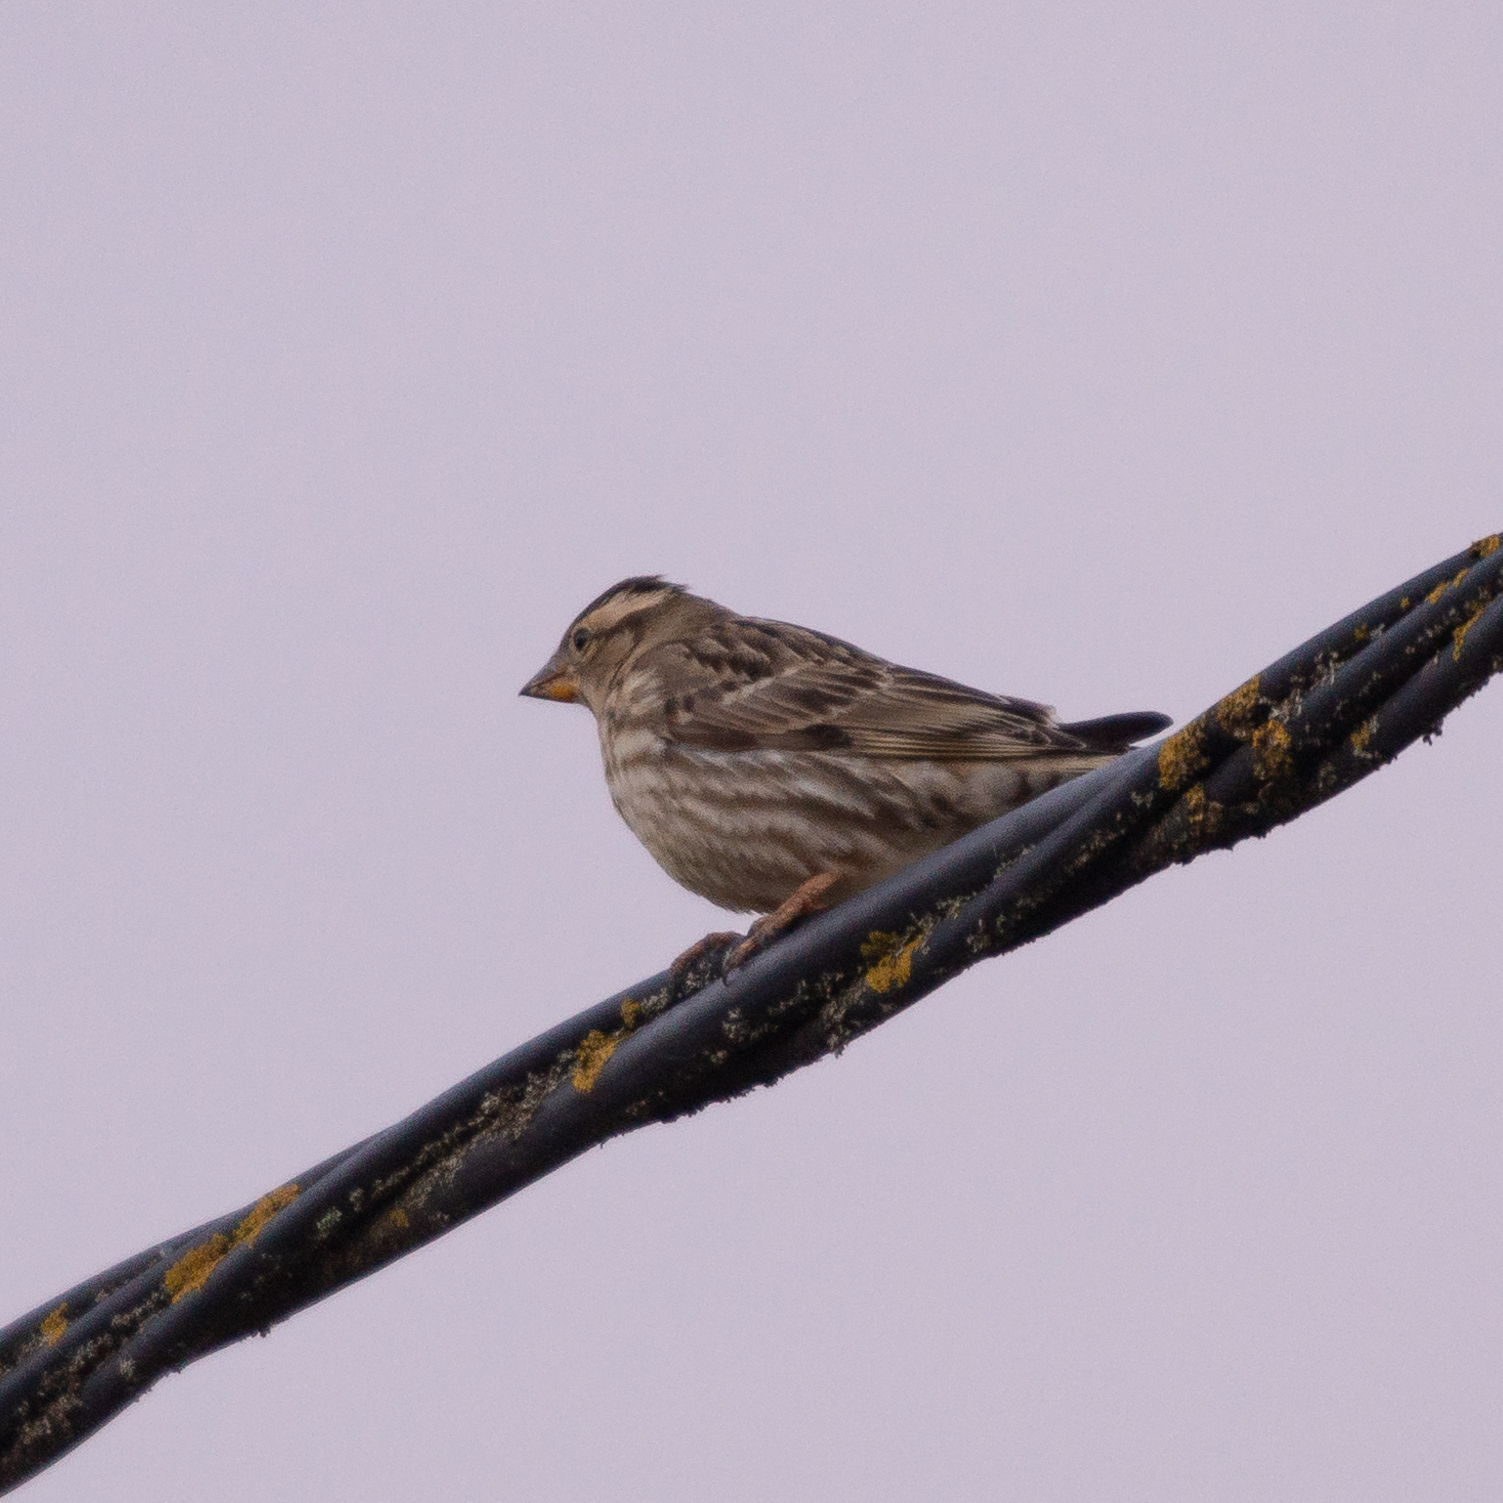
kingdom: Animalia
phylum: Chordata
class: Aves
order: Passeriformes
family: Passeridae
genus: Petronia
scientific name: Petronia petronia
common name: Rock sparrow
